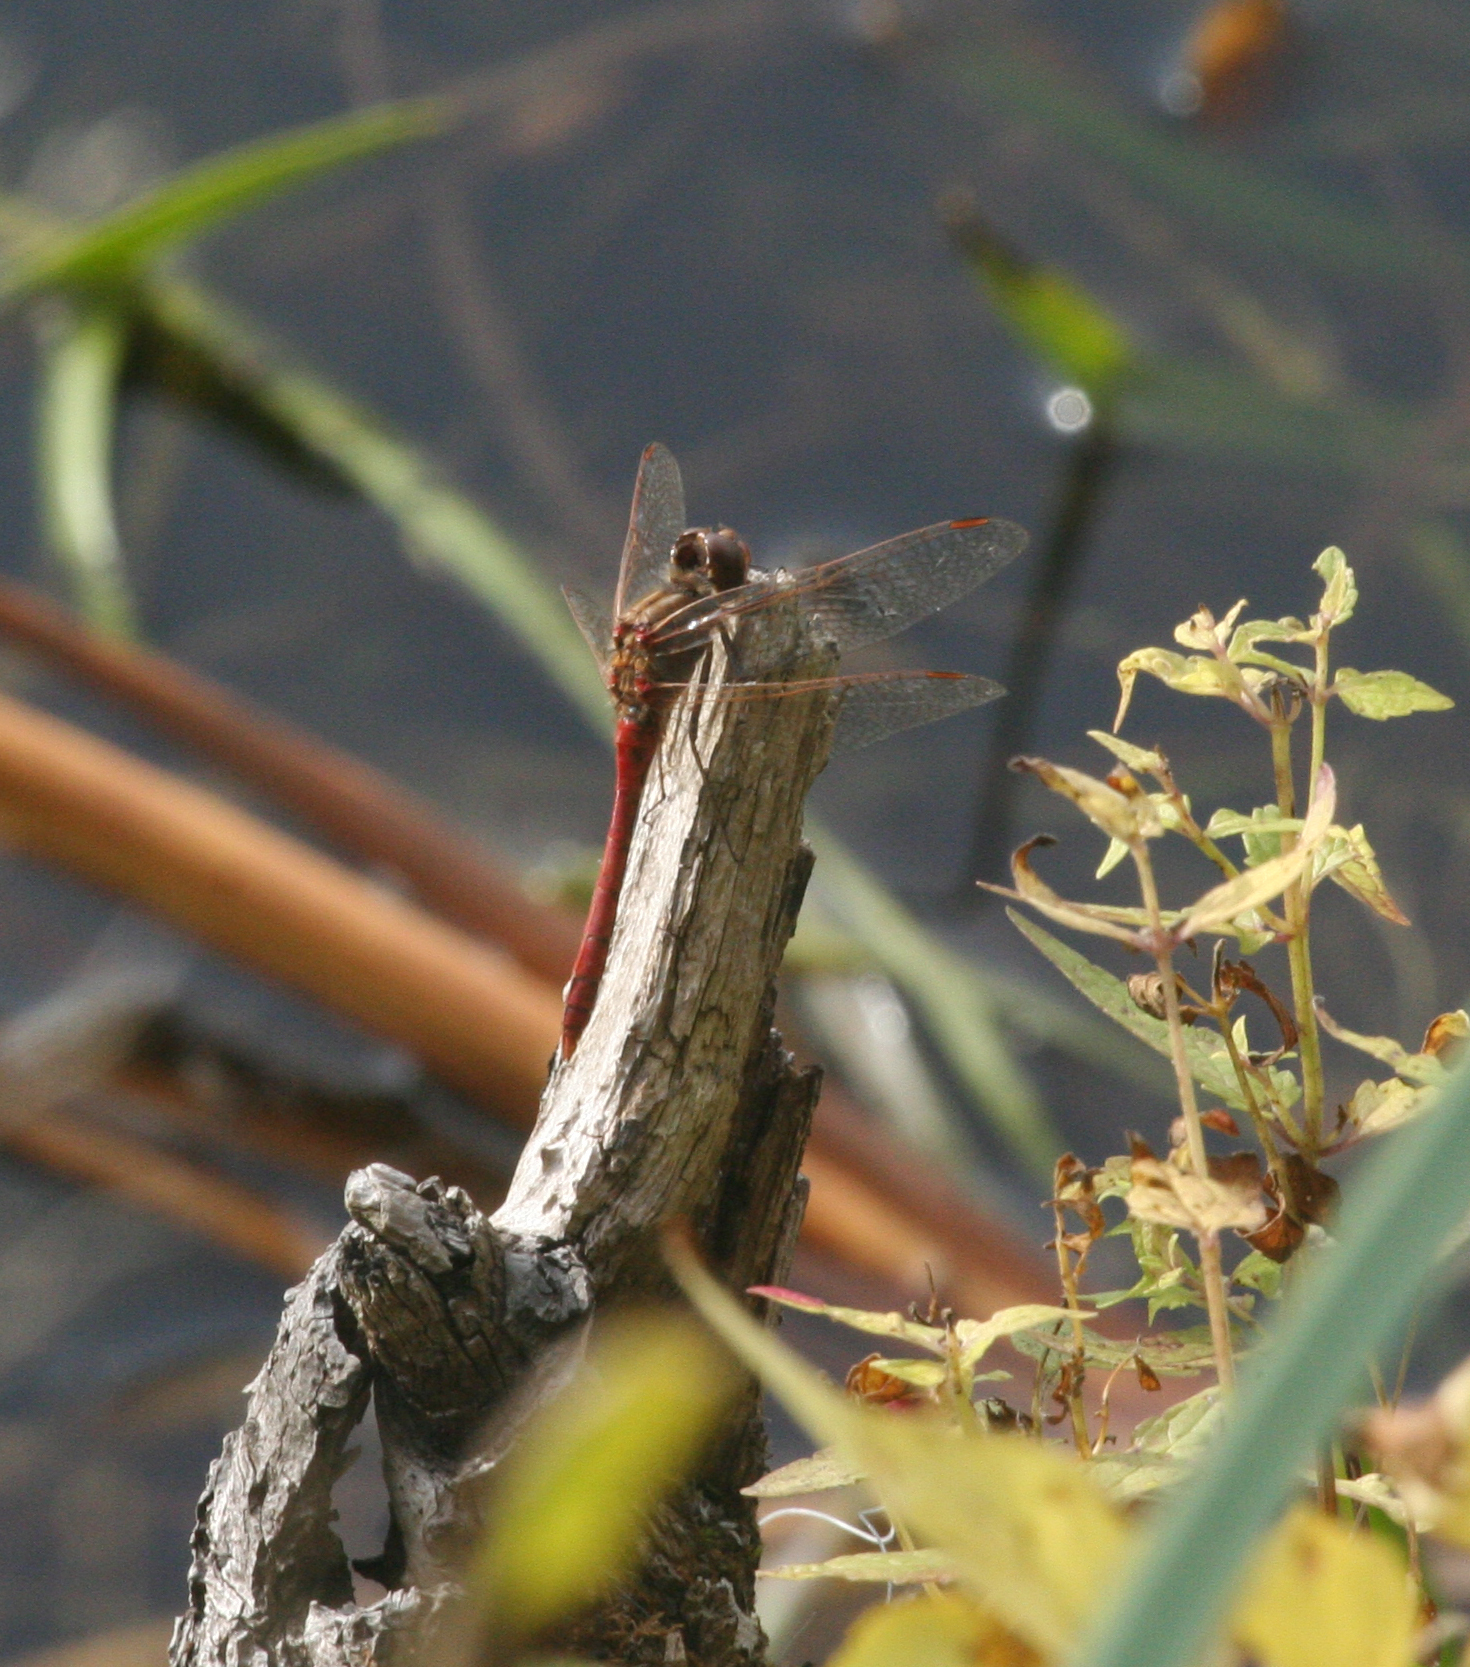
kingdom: Animalia
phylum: Arthropoda
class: Insecta
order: Odonata
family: Libellulidae
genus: Sympetrum
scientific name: Sympetrum vulgatum
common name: Vagrant darter
